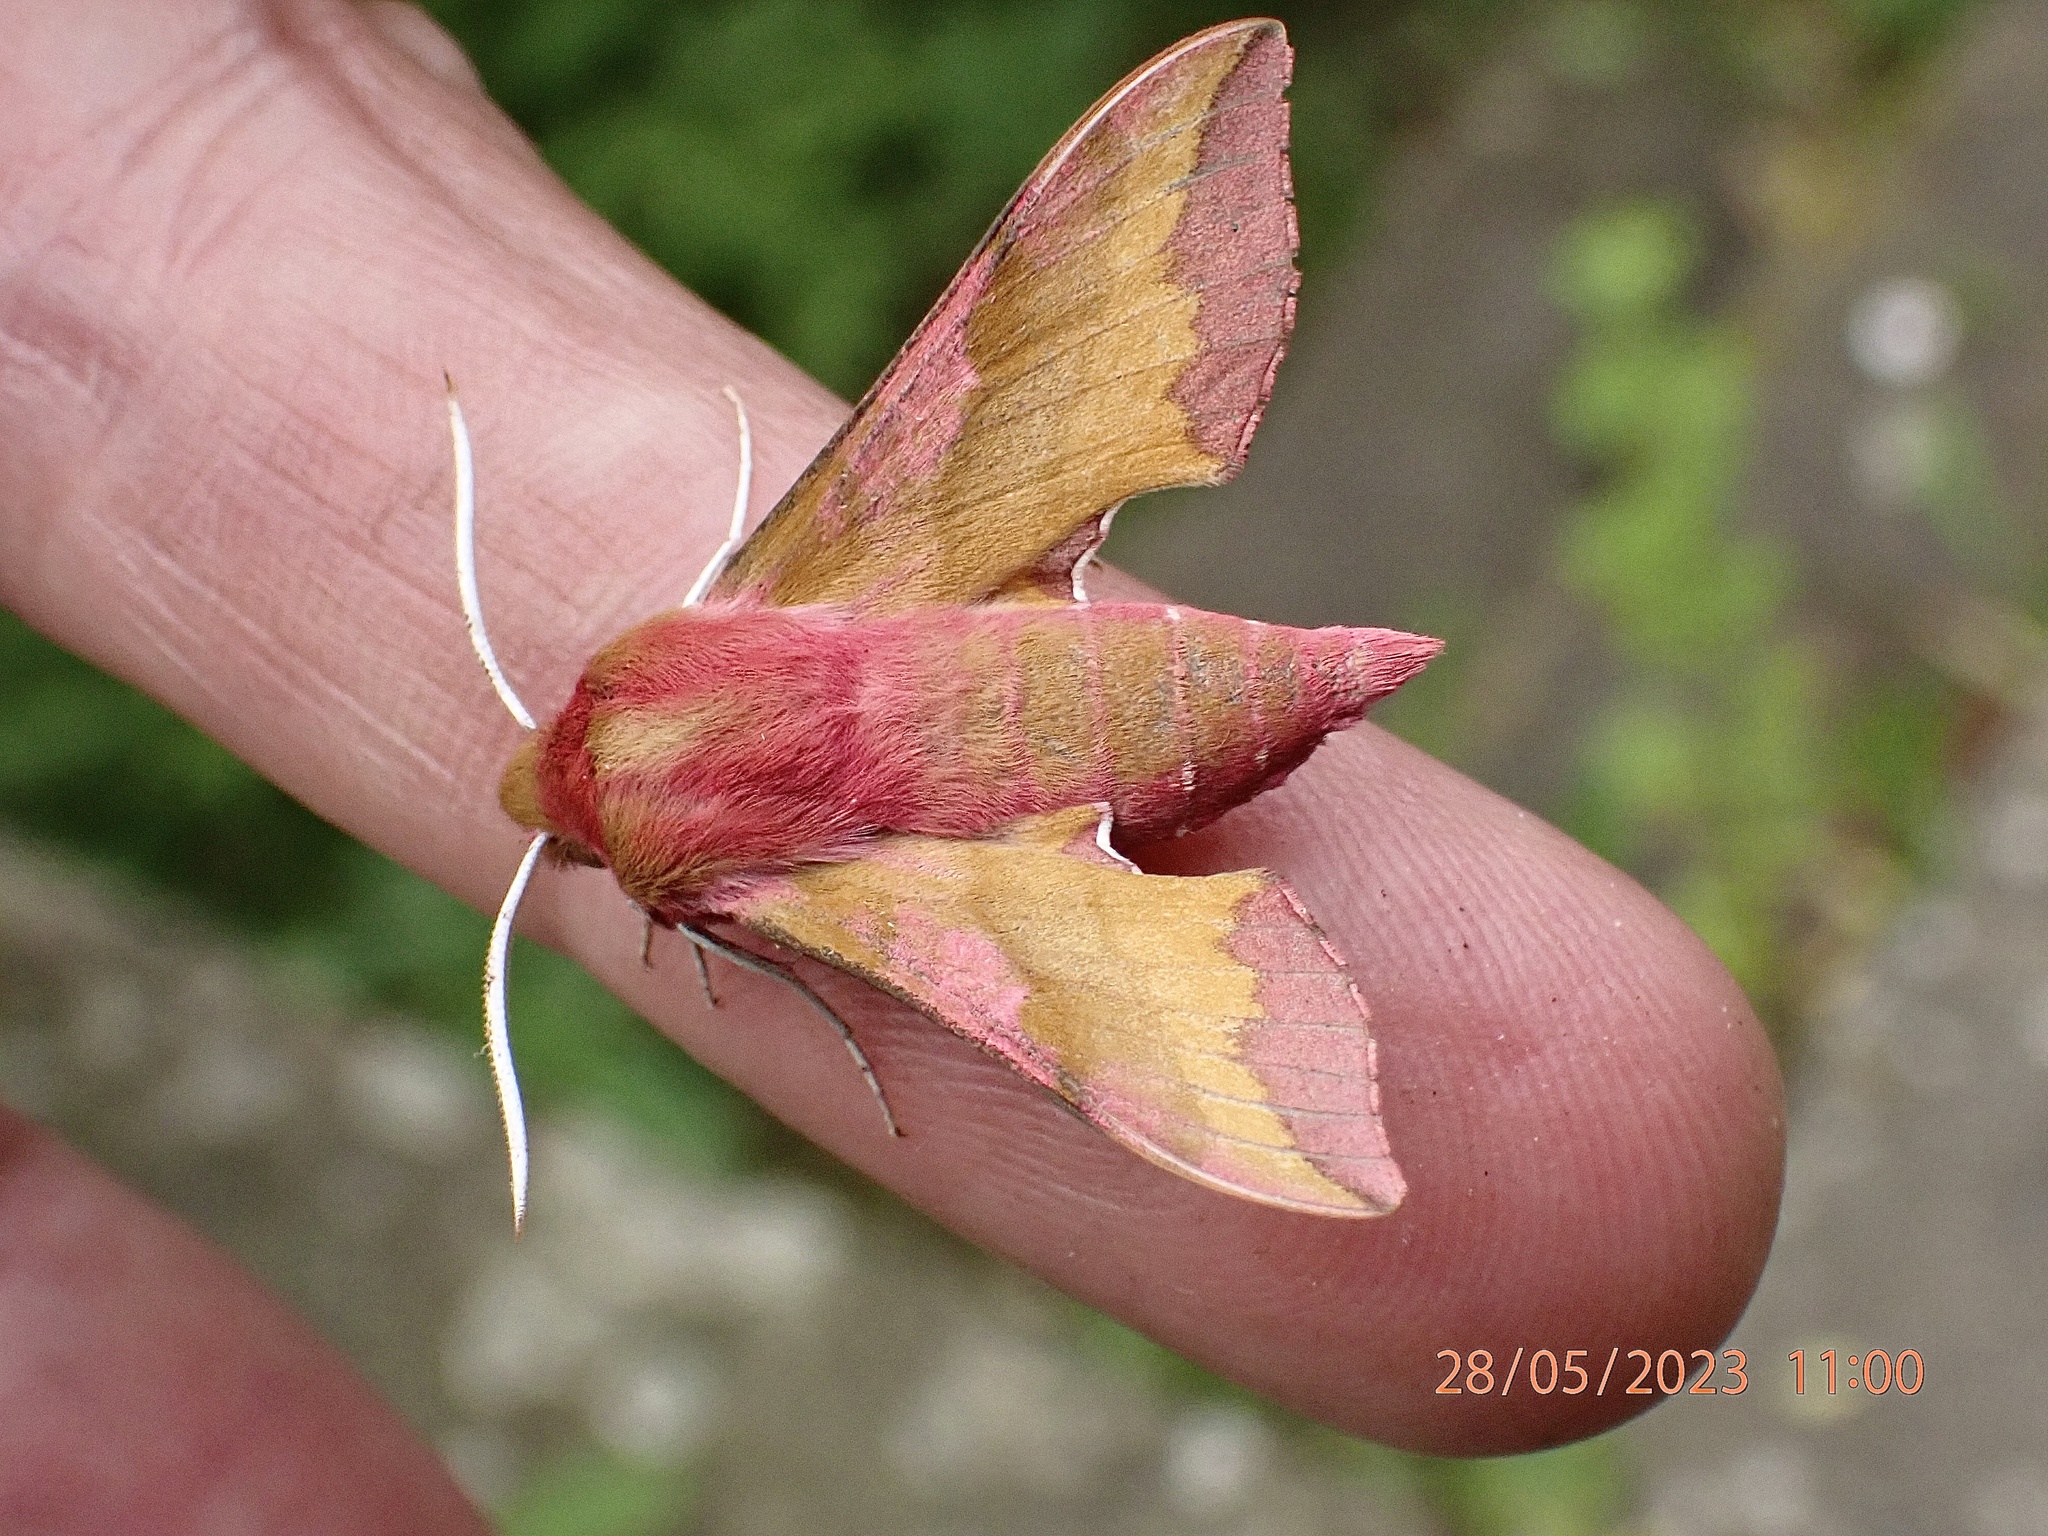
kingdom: Animalia
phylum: Arthropoda
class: Insecta
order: Lepidoptera
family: Sphingidae
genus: Deilephila
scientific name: Deilephila porcellus
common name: Small elephant hawk-moth
